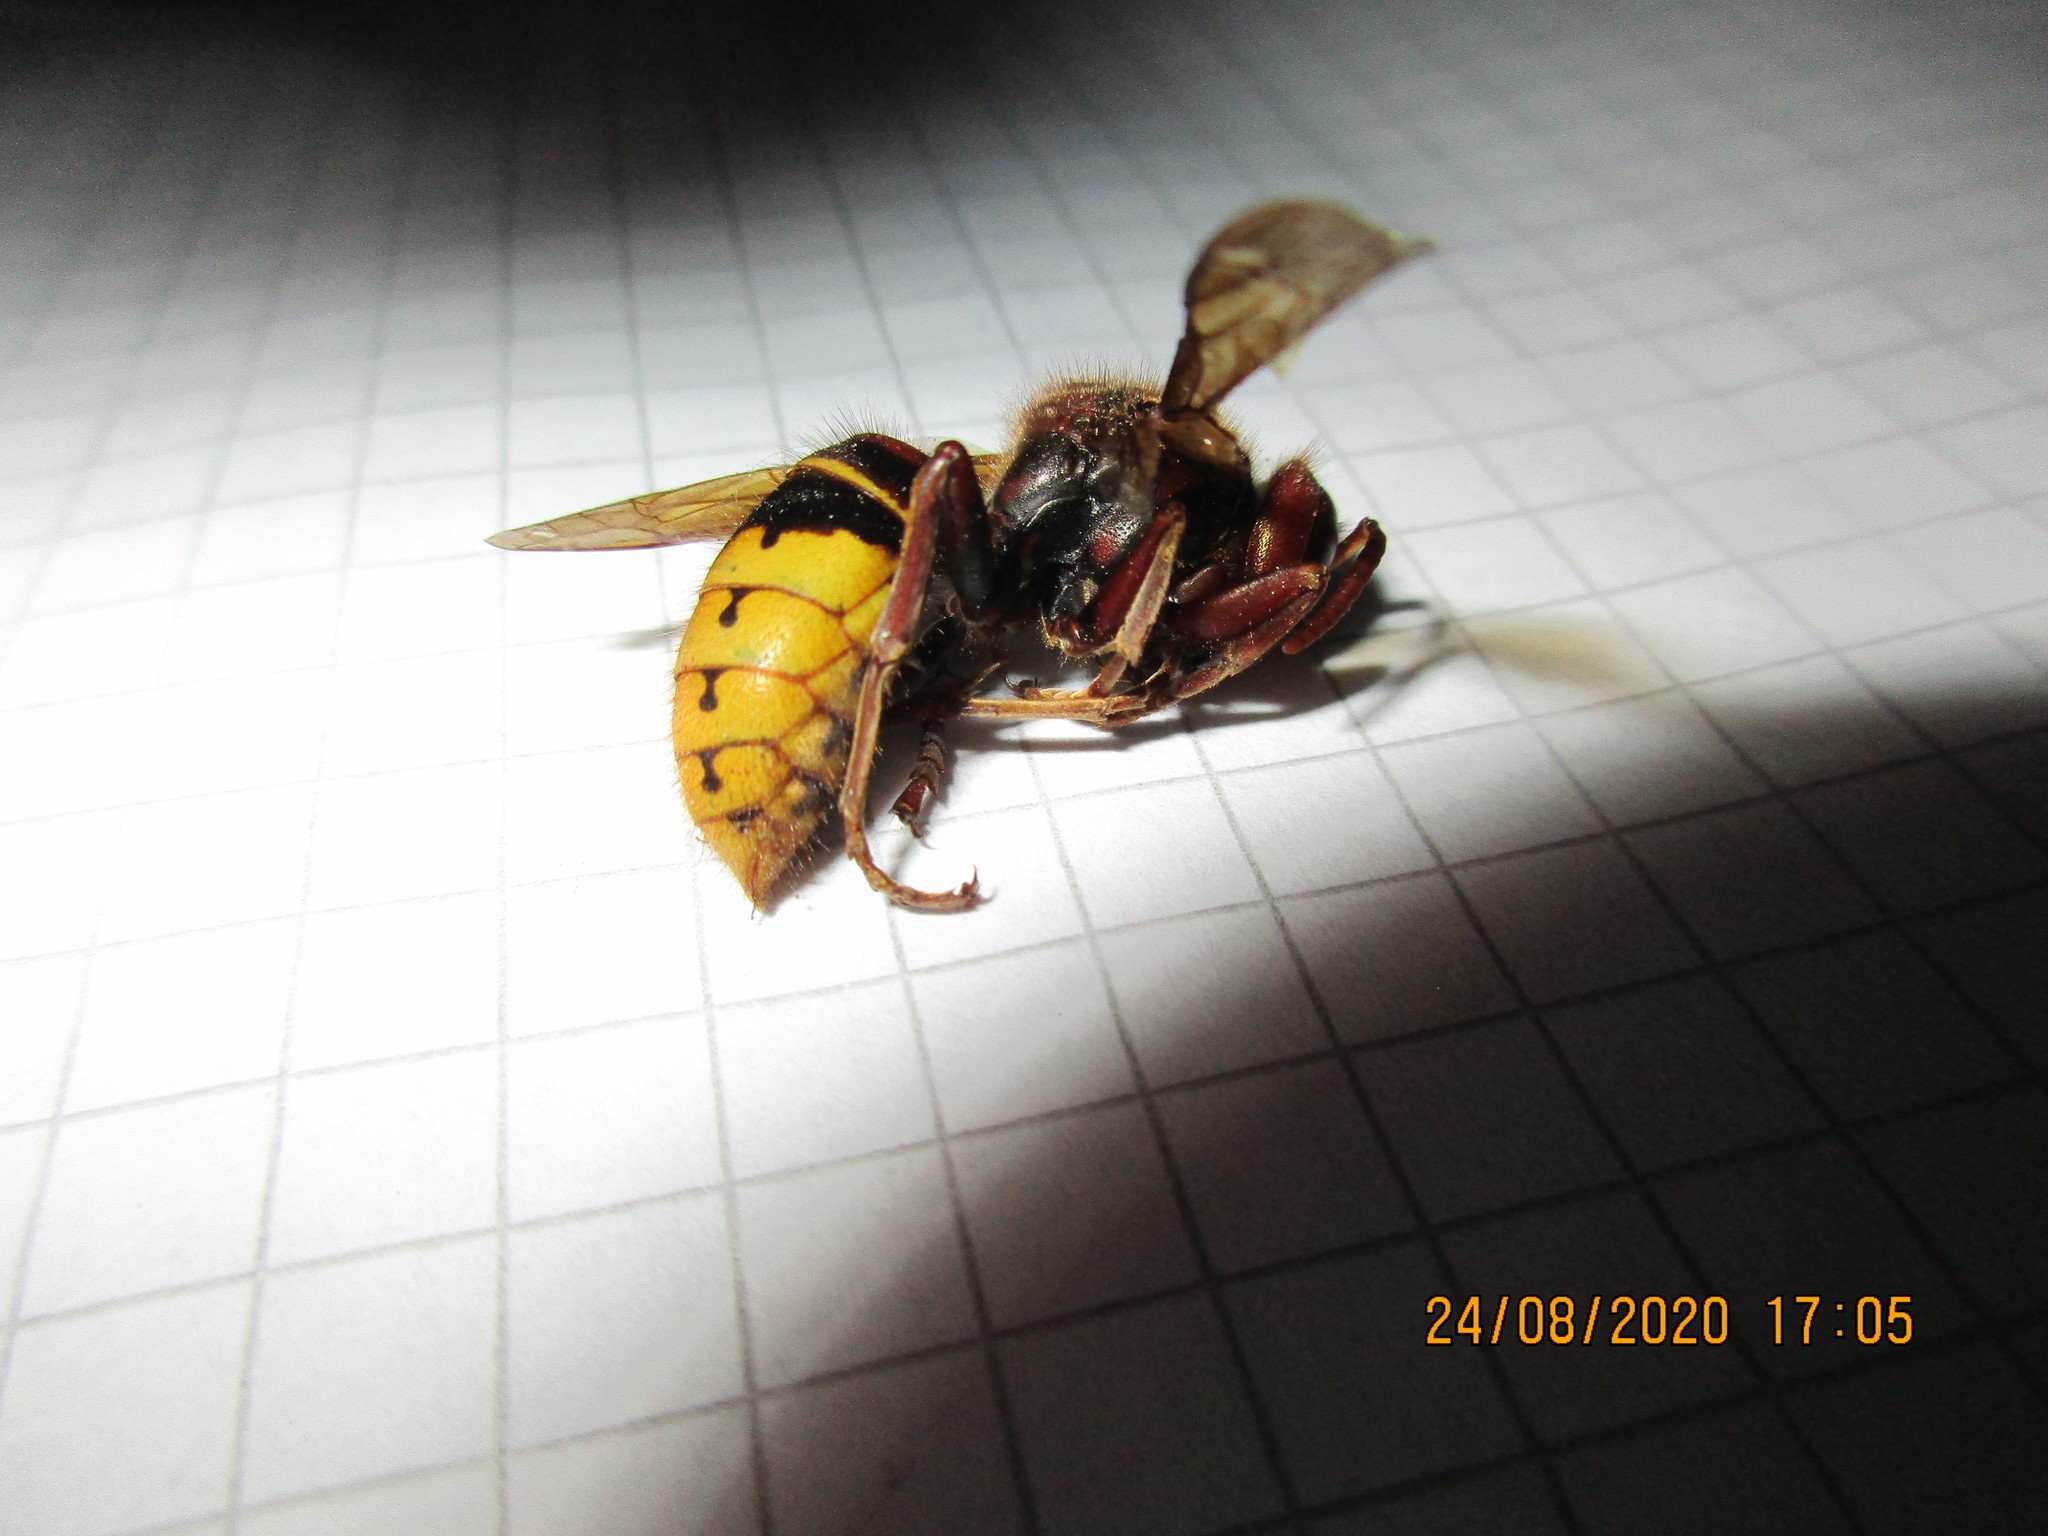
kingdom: Animalia
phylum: Arthropoda
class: Insecta
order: Hymenoptera
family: Vespidae
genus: Vespa
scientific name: Vespa crabro
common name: Hornet
